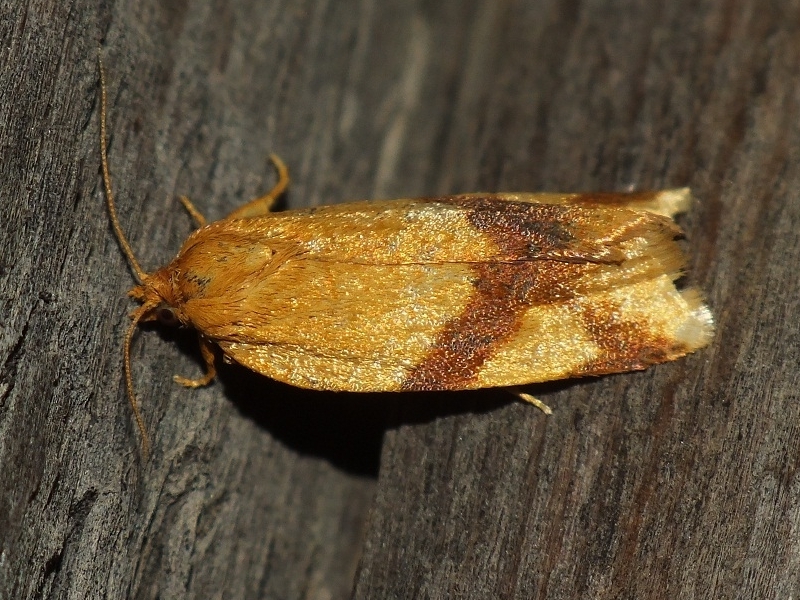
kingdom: Animalia
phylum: Arthropoda
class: Insecta
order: Lepidoptera
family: Tortricidae
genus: Aphelia
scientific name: Aphelia ochreana
